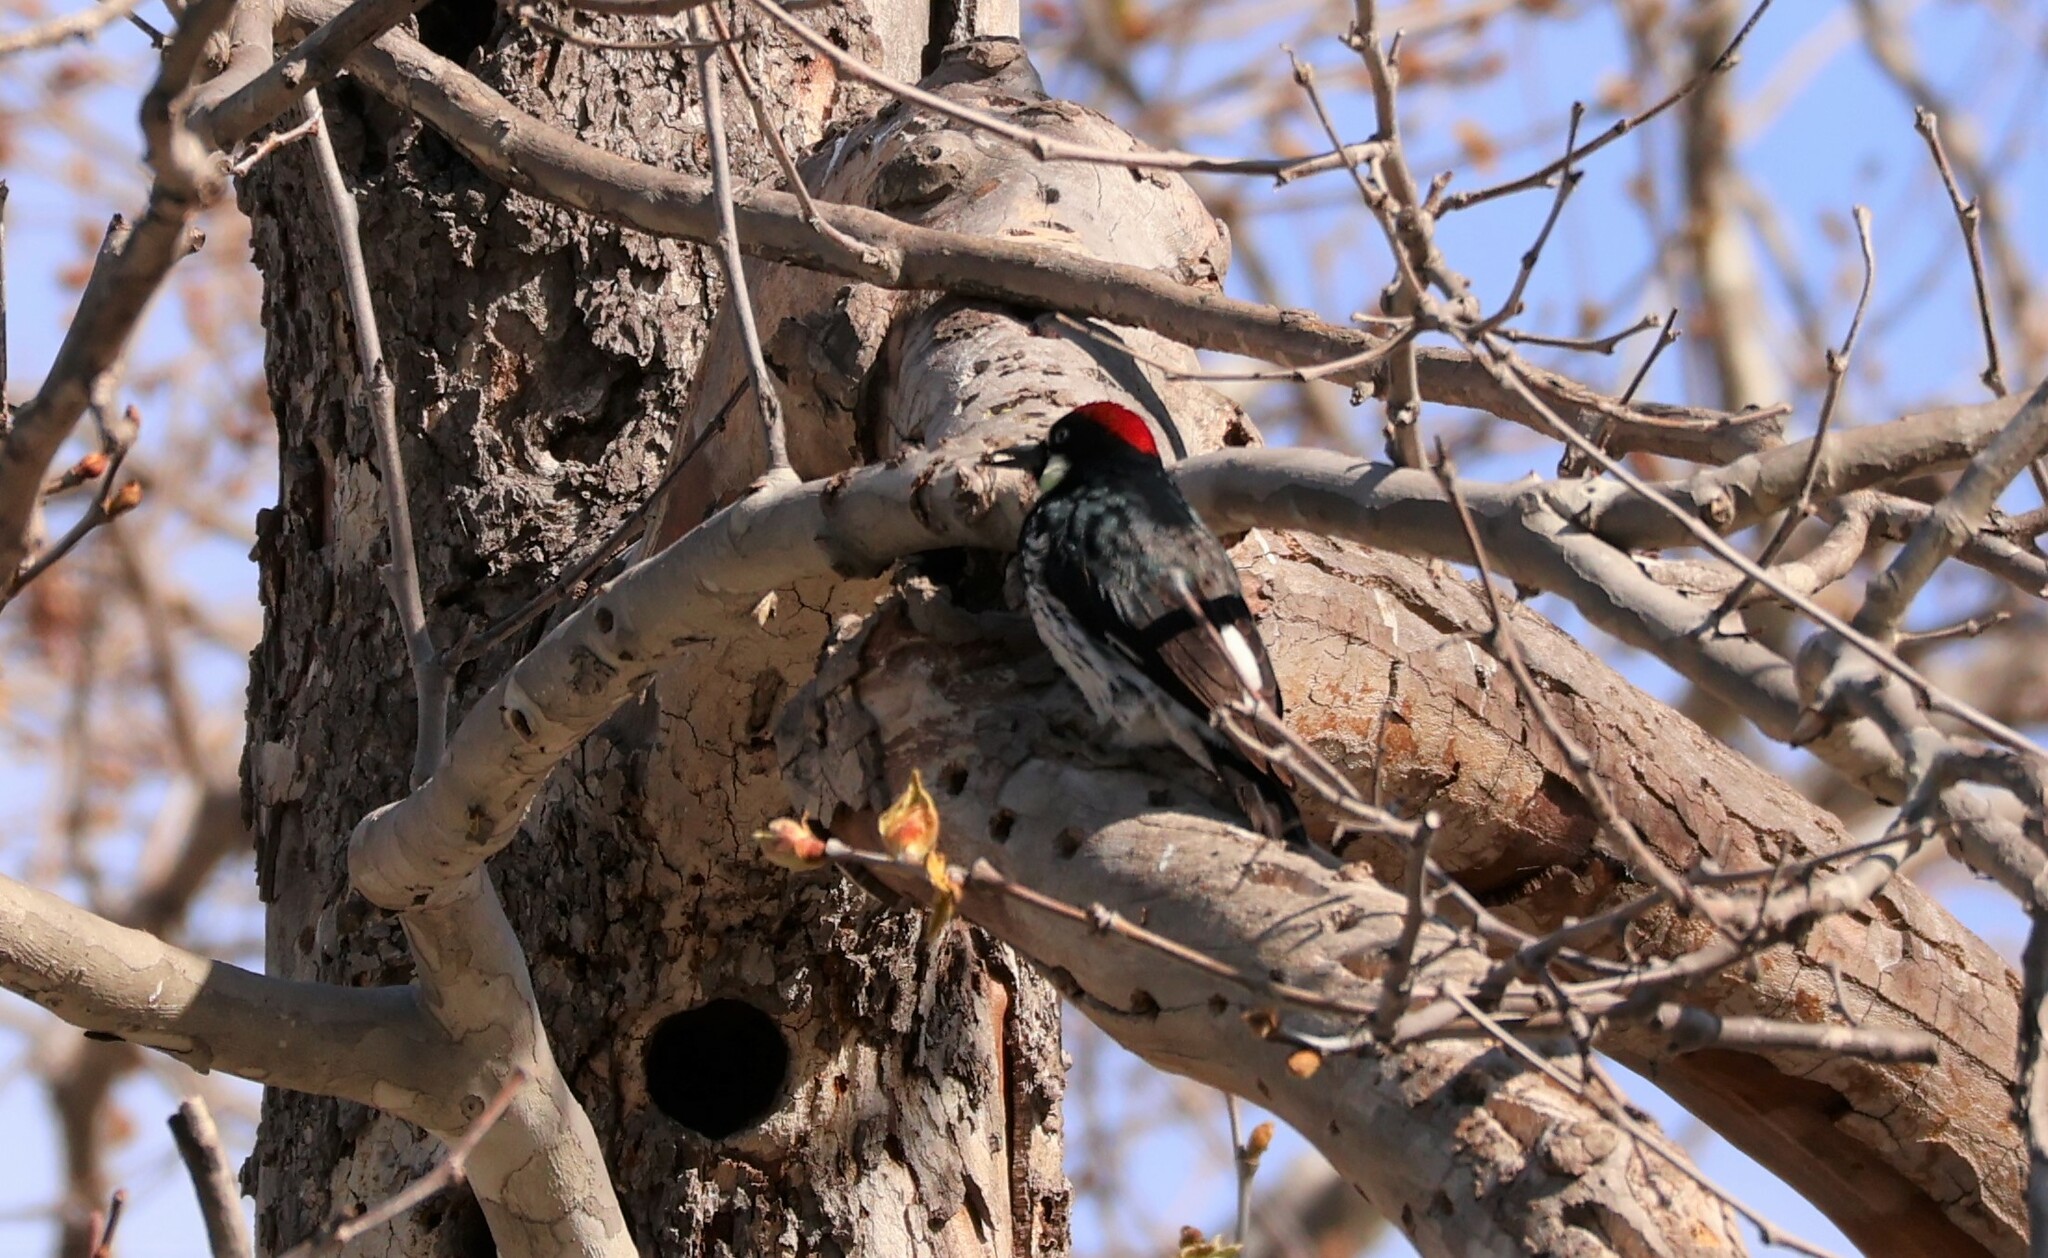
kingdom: Animalia
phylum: Chordata
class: Aves
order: Piciformes
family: Picidae
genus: Melanerpes
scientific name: Melanerpes formicivorus
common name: Acorn woodpecker
